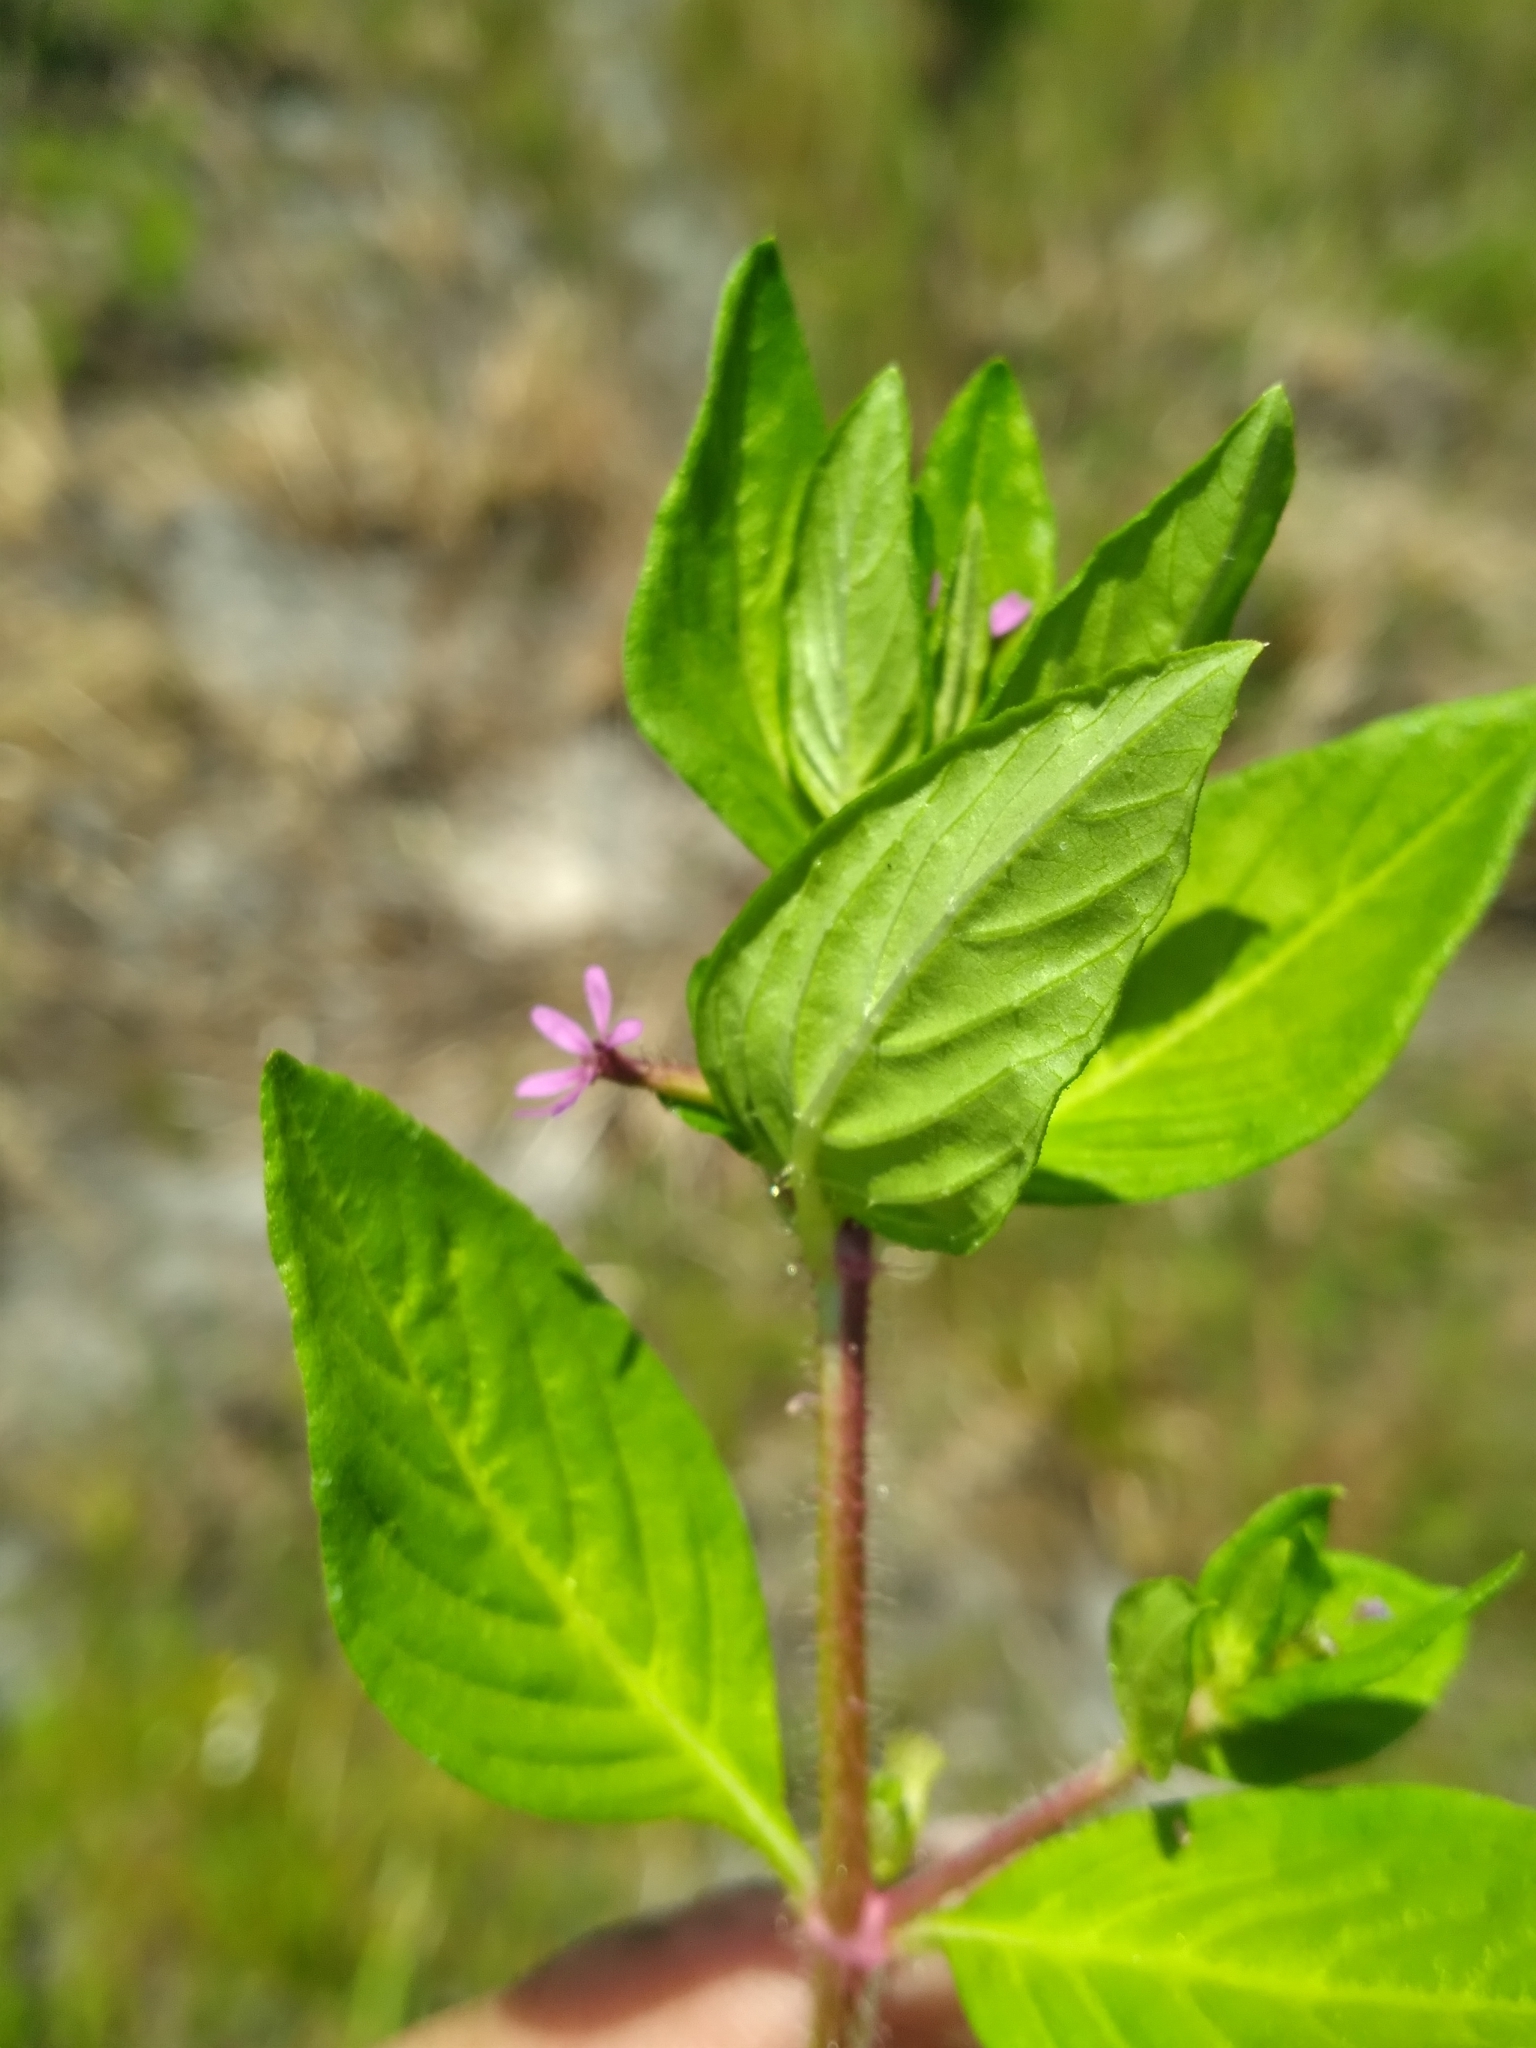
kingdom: Plantae
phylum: Tracheophyta
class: Magnoliopsida
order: Myrtales
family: Lythraceae
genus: Cuphea
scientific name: Cuphea carthagenensis
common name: Colombian waxweed
